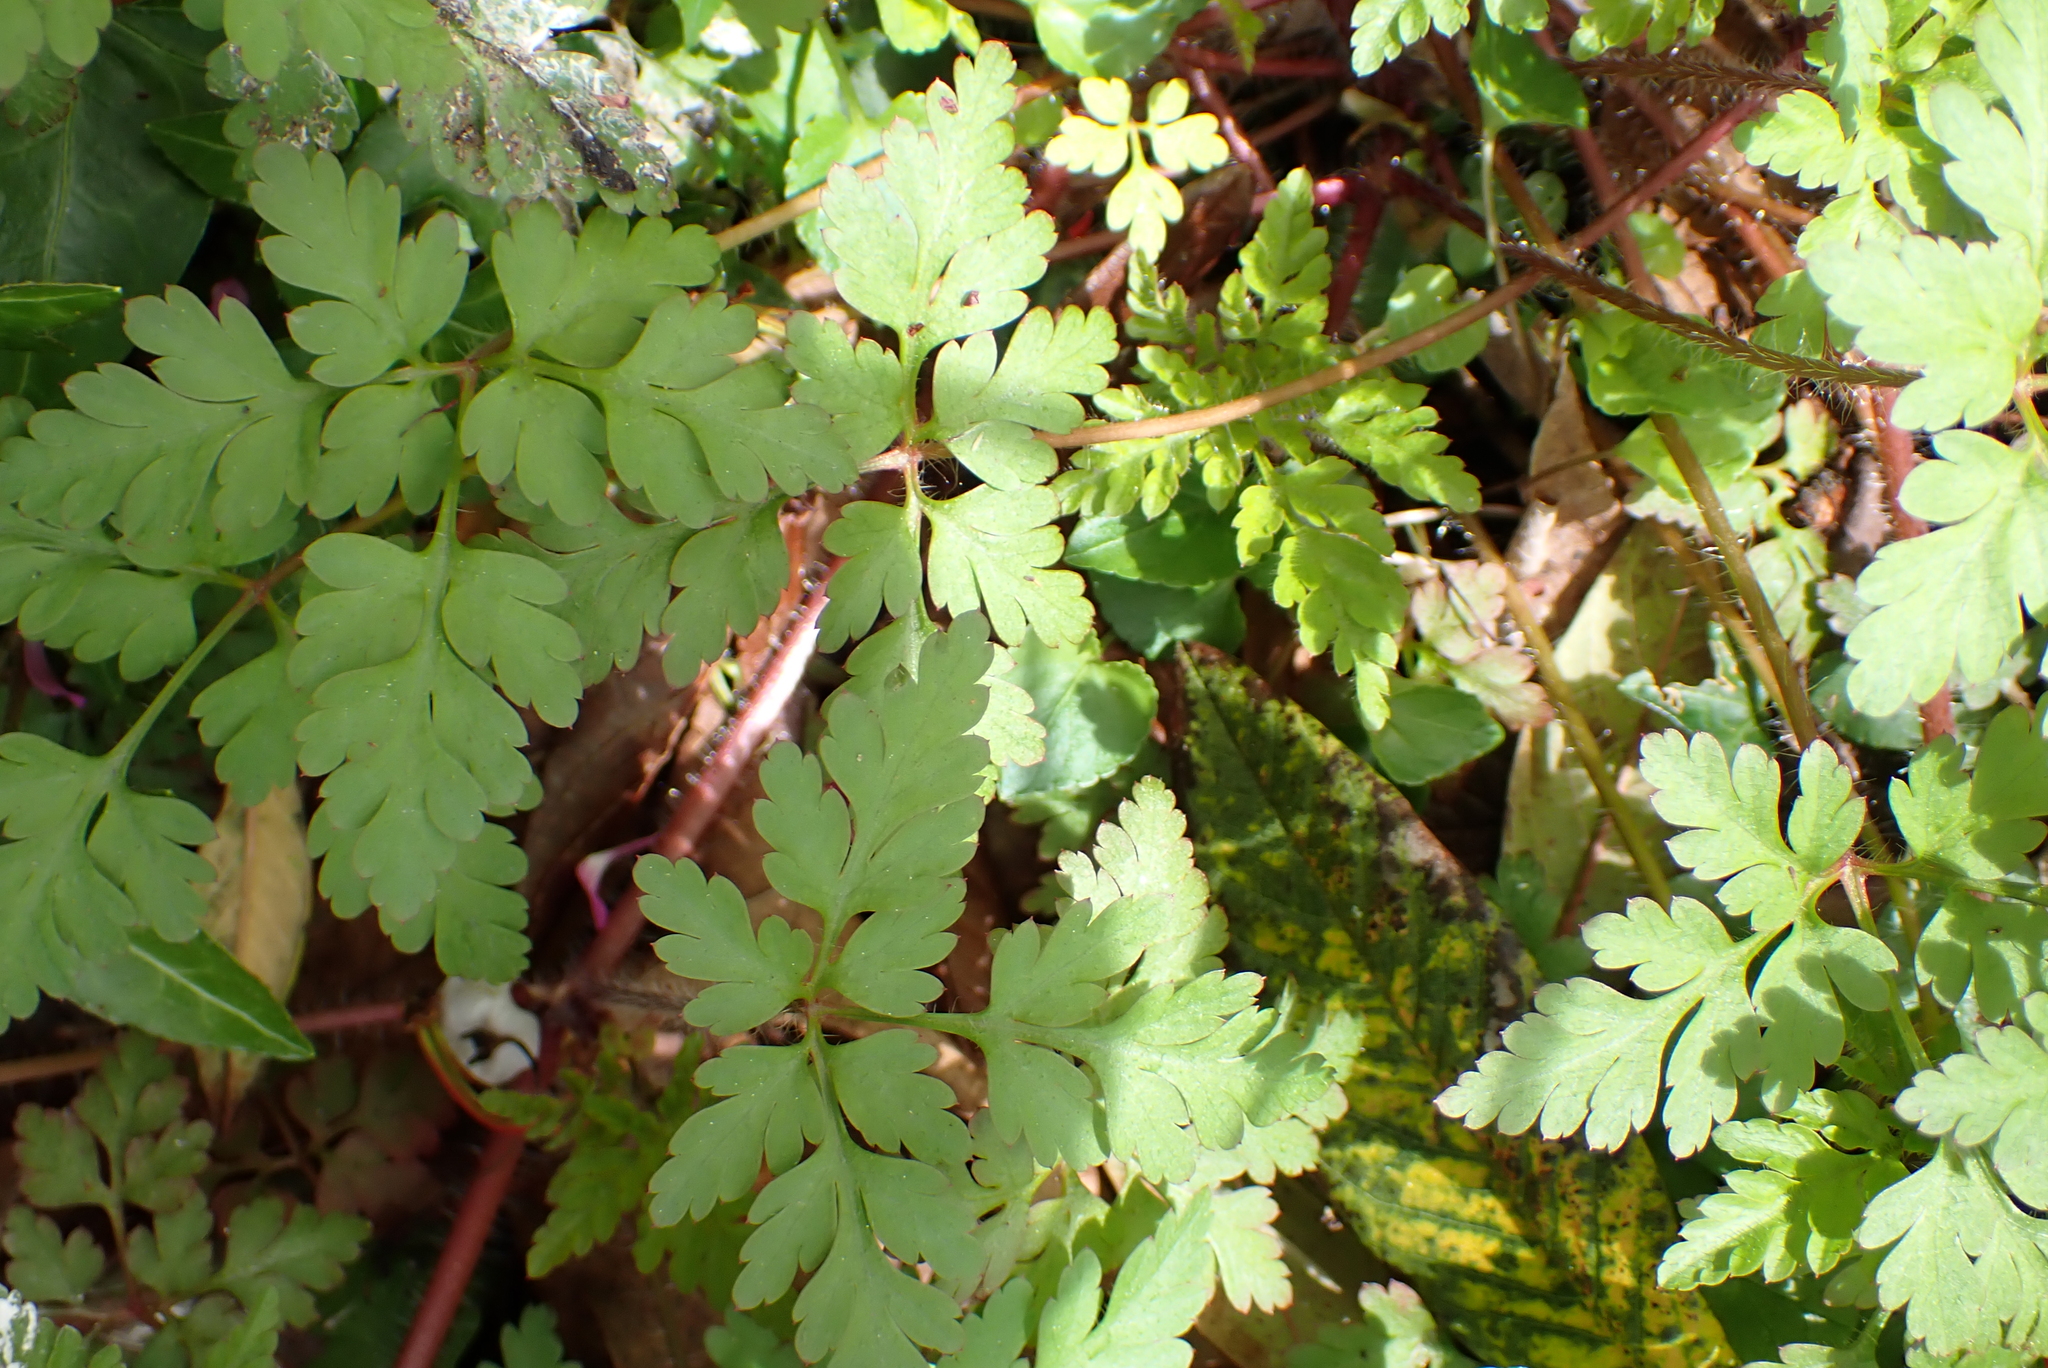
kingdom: Plantae
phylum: Tracheophyta
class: Magnoliopsida
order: Geraniales
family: Geraniaceae
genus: Geranium
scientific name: Geranium robertianum
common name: Herb-robert
